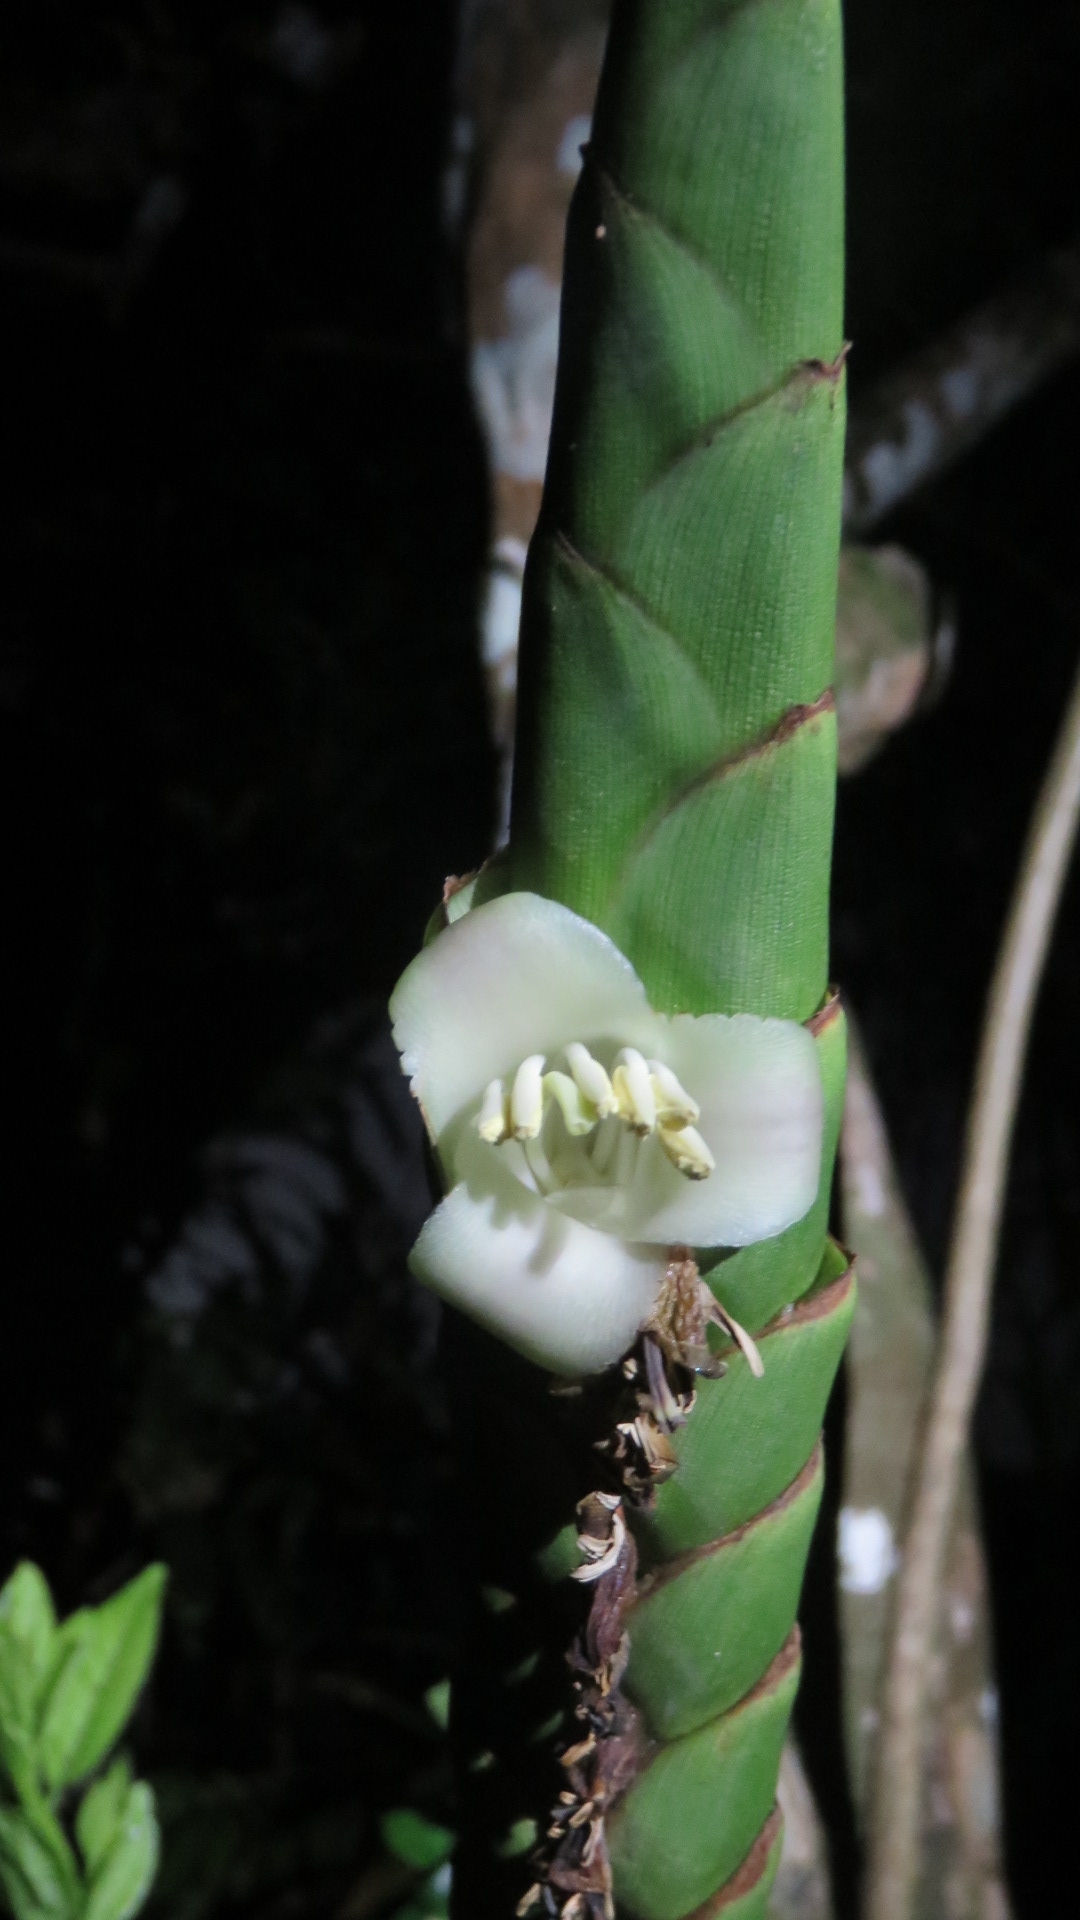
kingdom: Plantae
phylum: Tracheophyta
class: Liliopsida
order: Poales
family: Bromeliaceae
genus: Werauhia
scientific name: Werauhia gladioliflora
